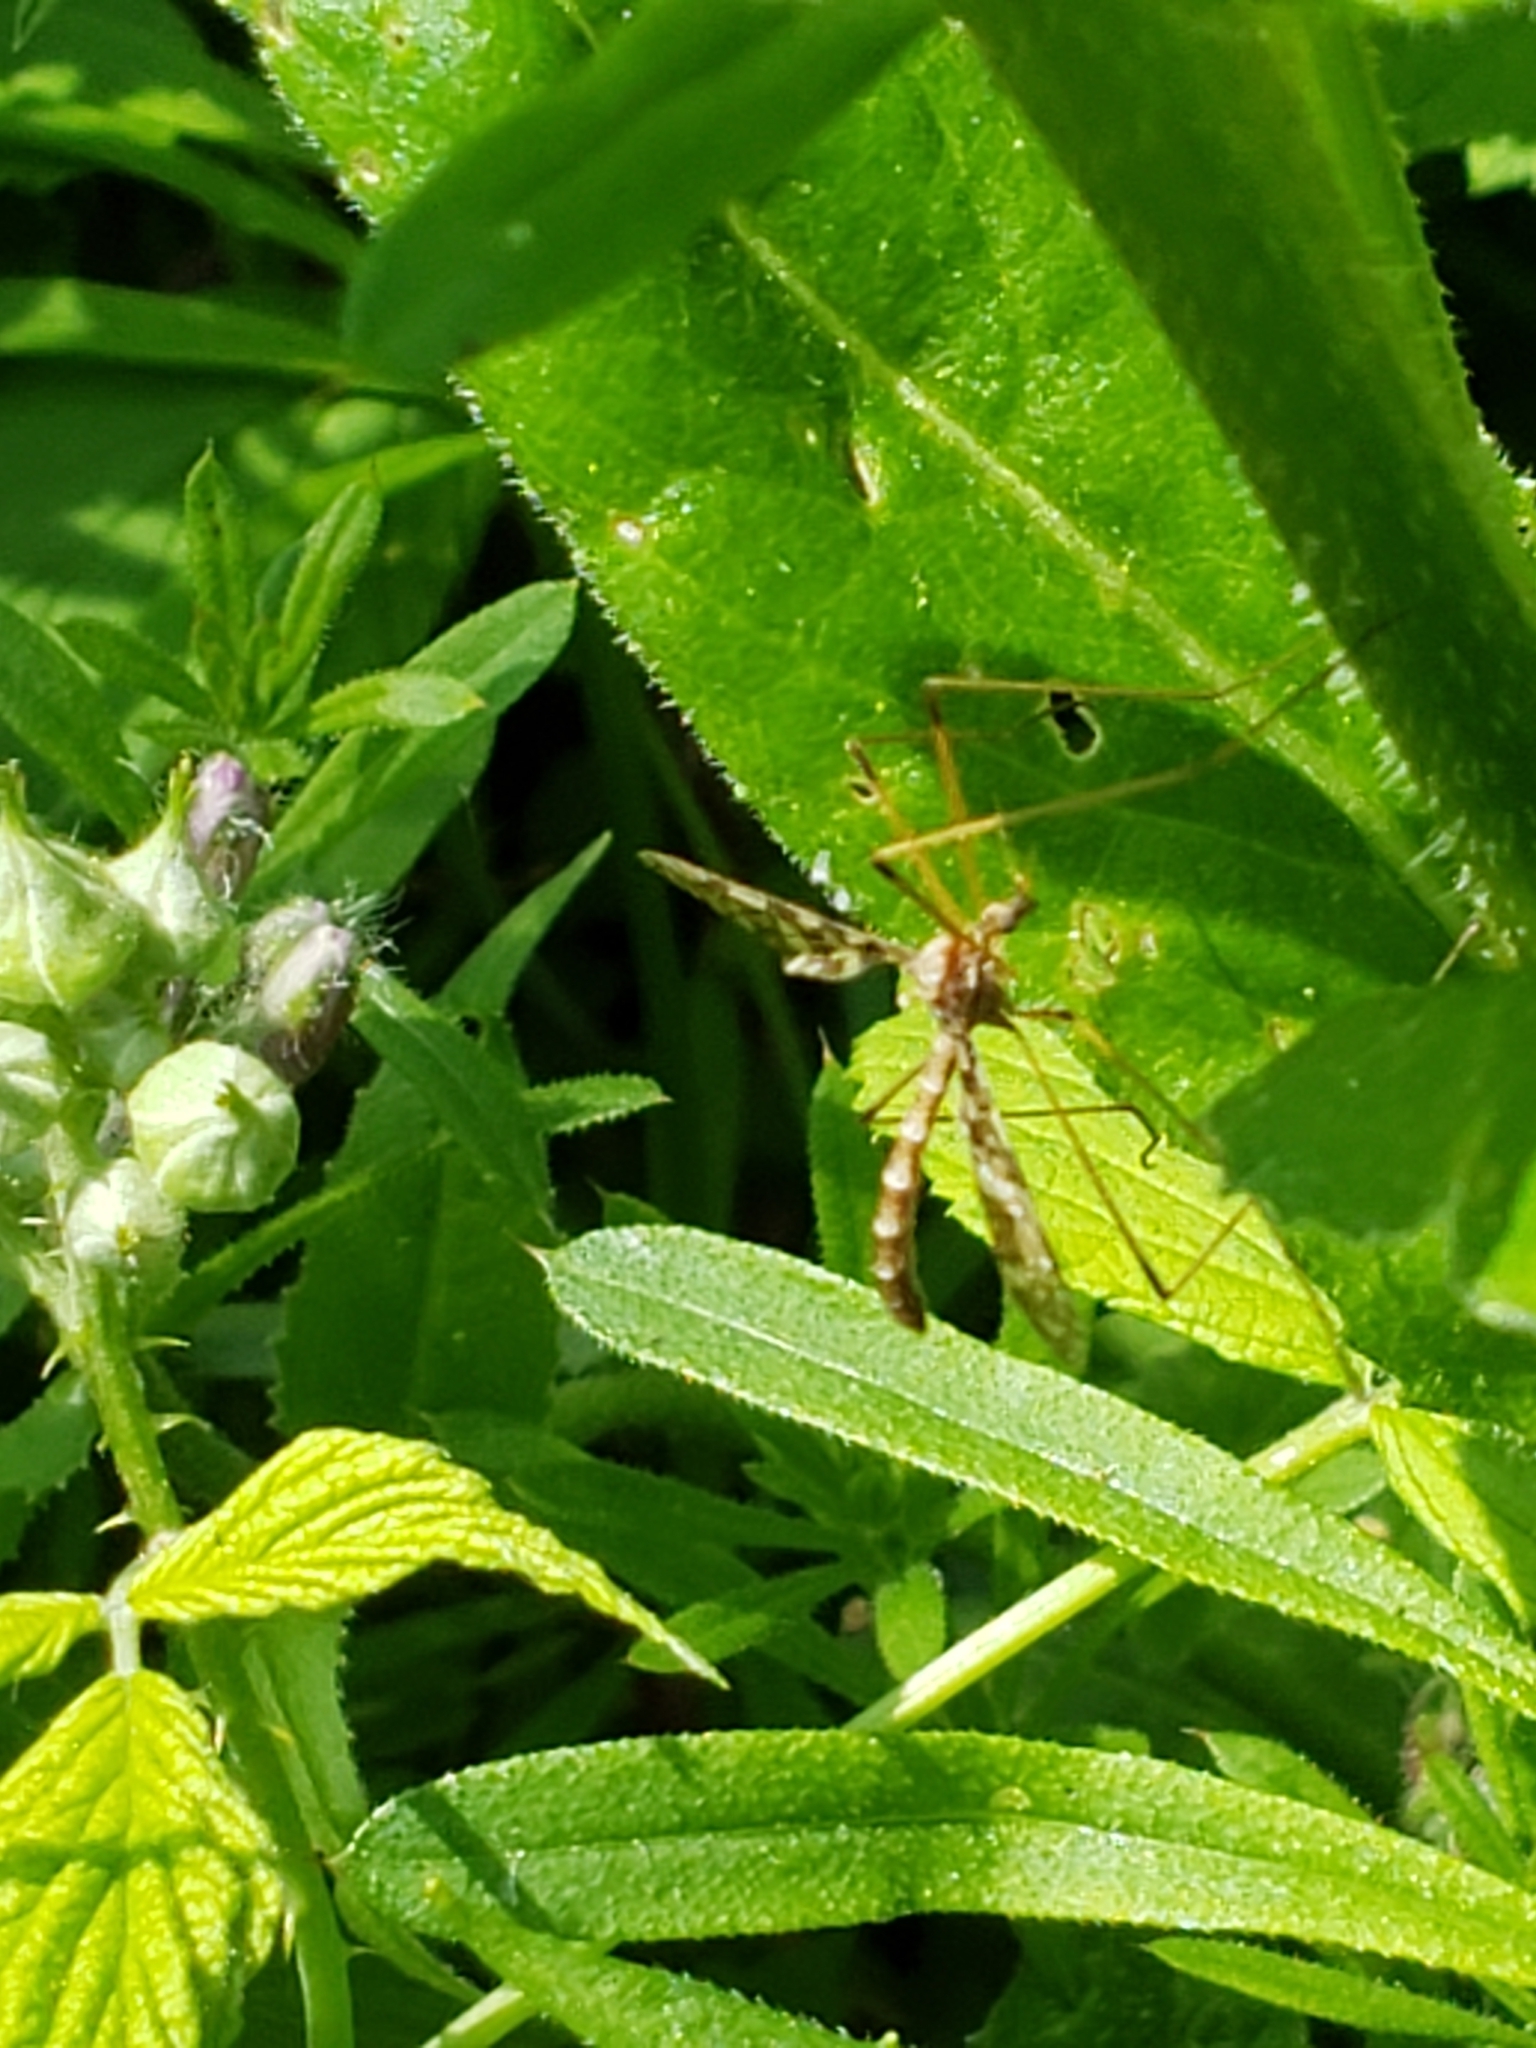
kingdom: Animalia
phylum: Arthropoda
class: Insecta
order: Diptera
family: Limoniidae
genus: Epiphragma
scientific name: Epiphragma fasciapenne
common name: Band-winged crane fly
